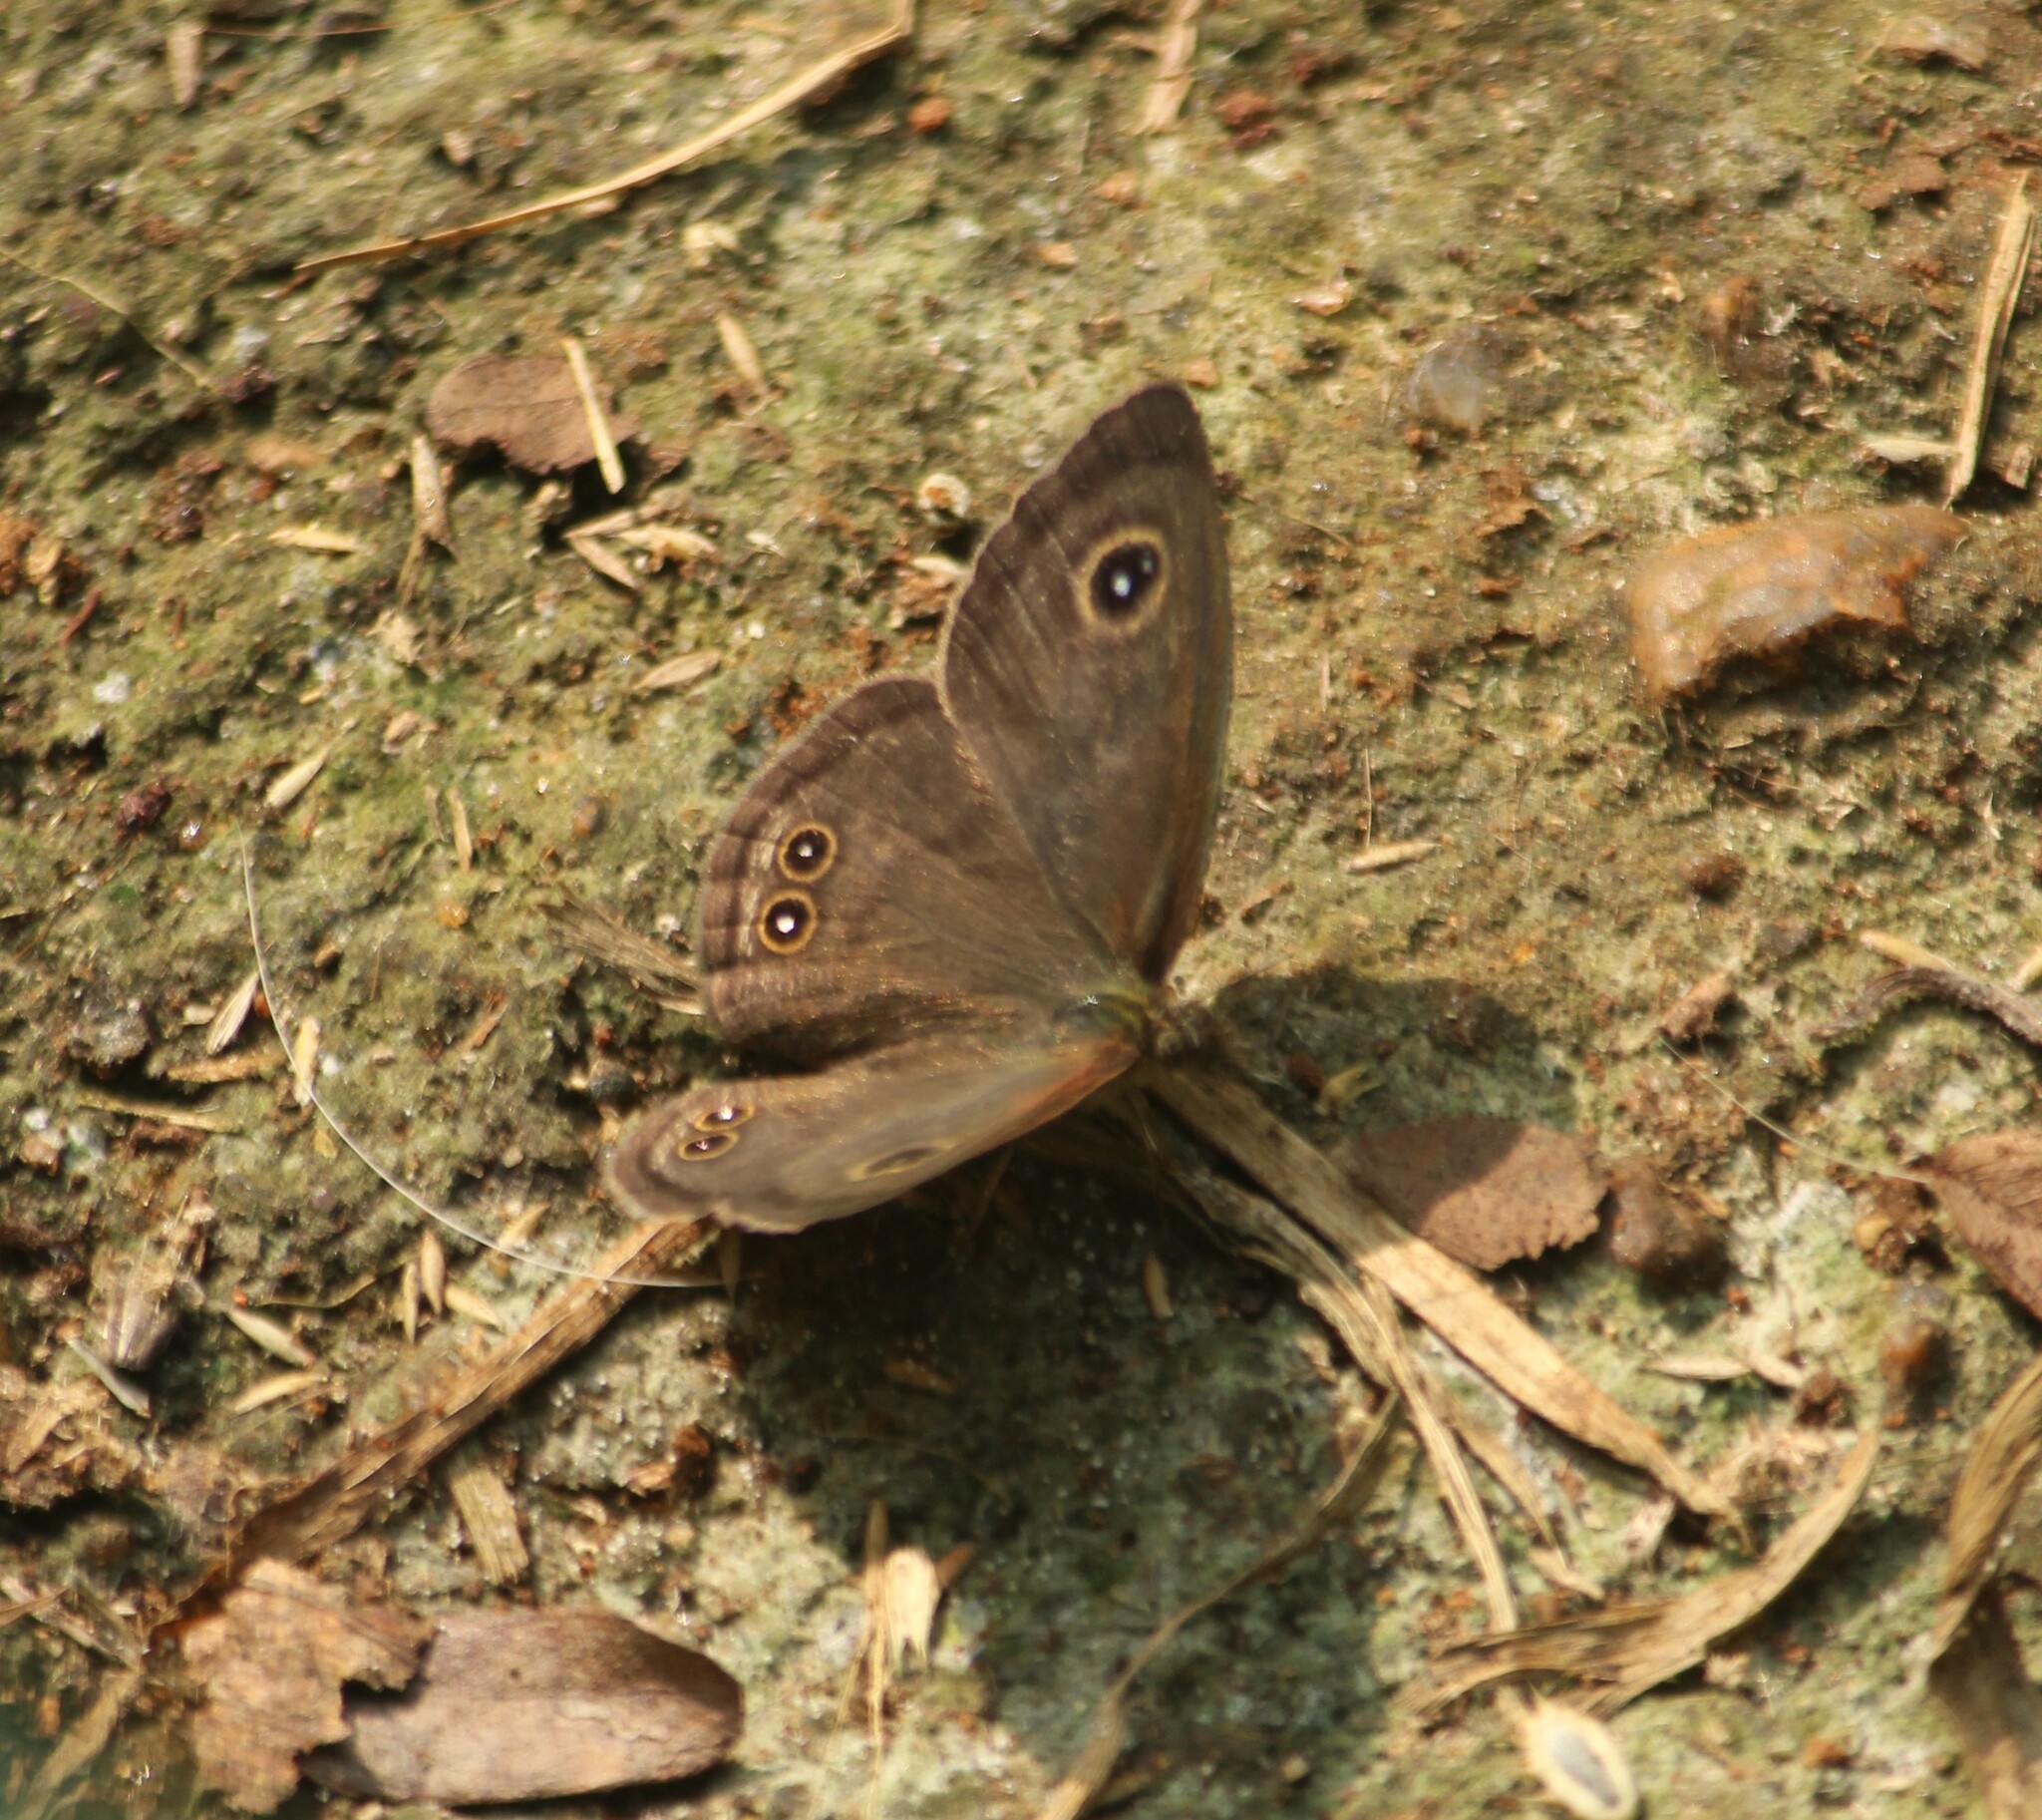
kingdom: Animalia
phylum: Arthropoda
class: Insecta
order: Lepidoptera
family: Nymphalidae
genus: Ypthima
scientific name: Ypthima huebneri
